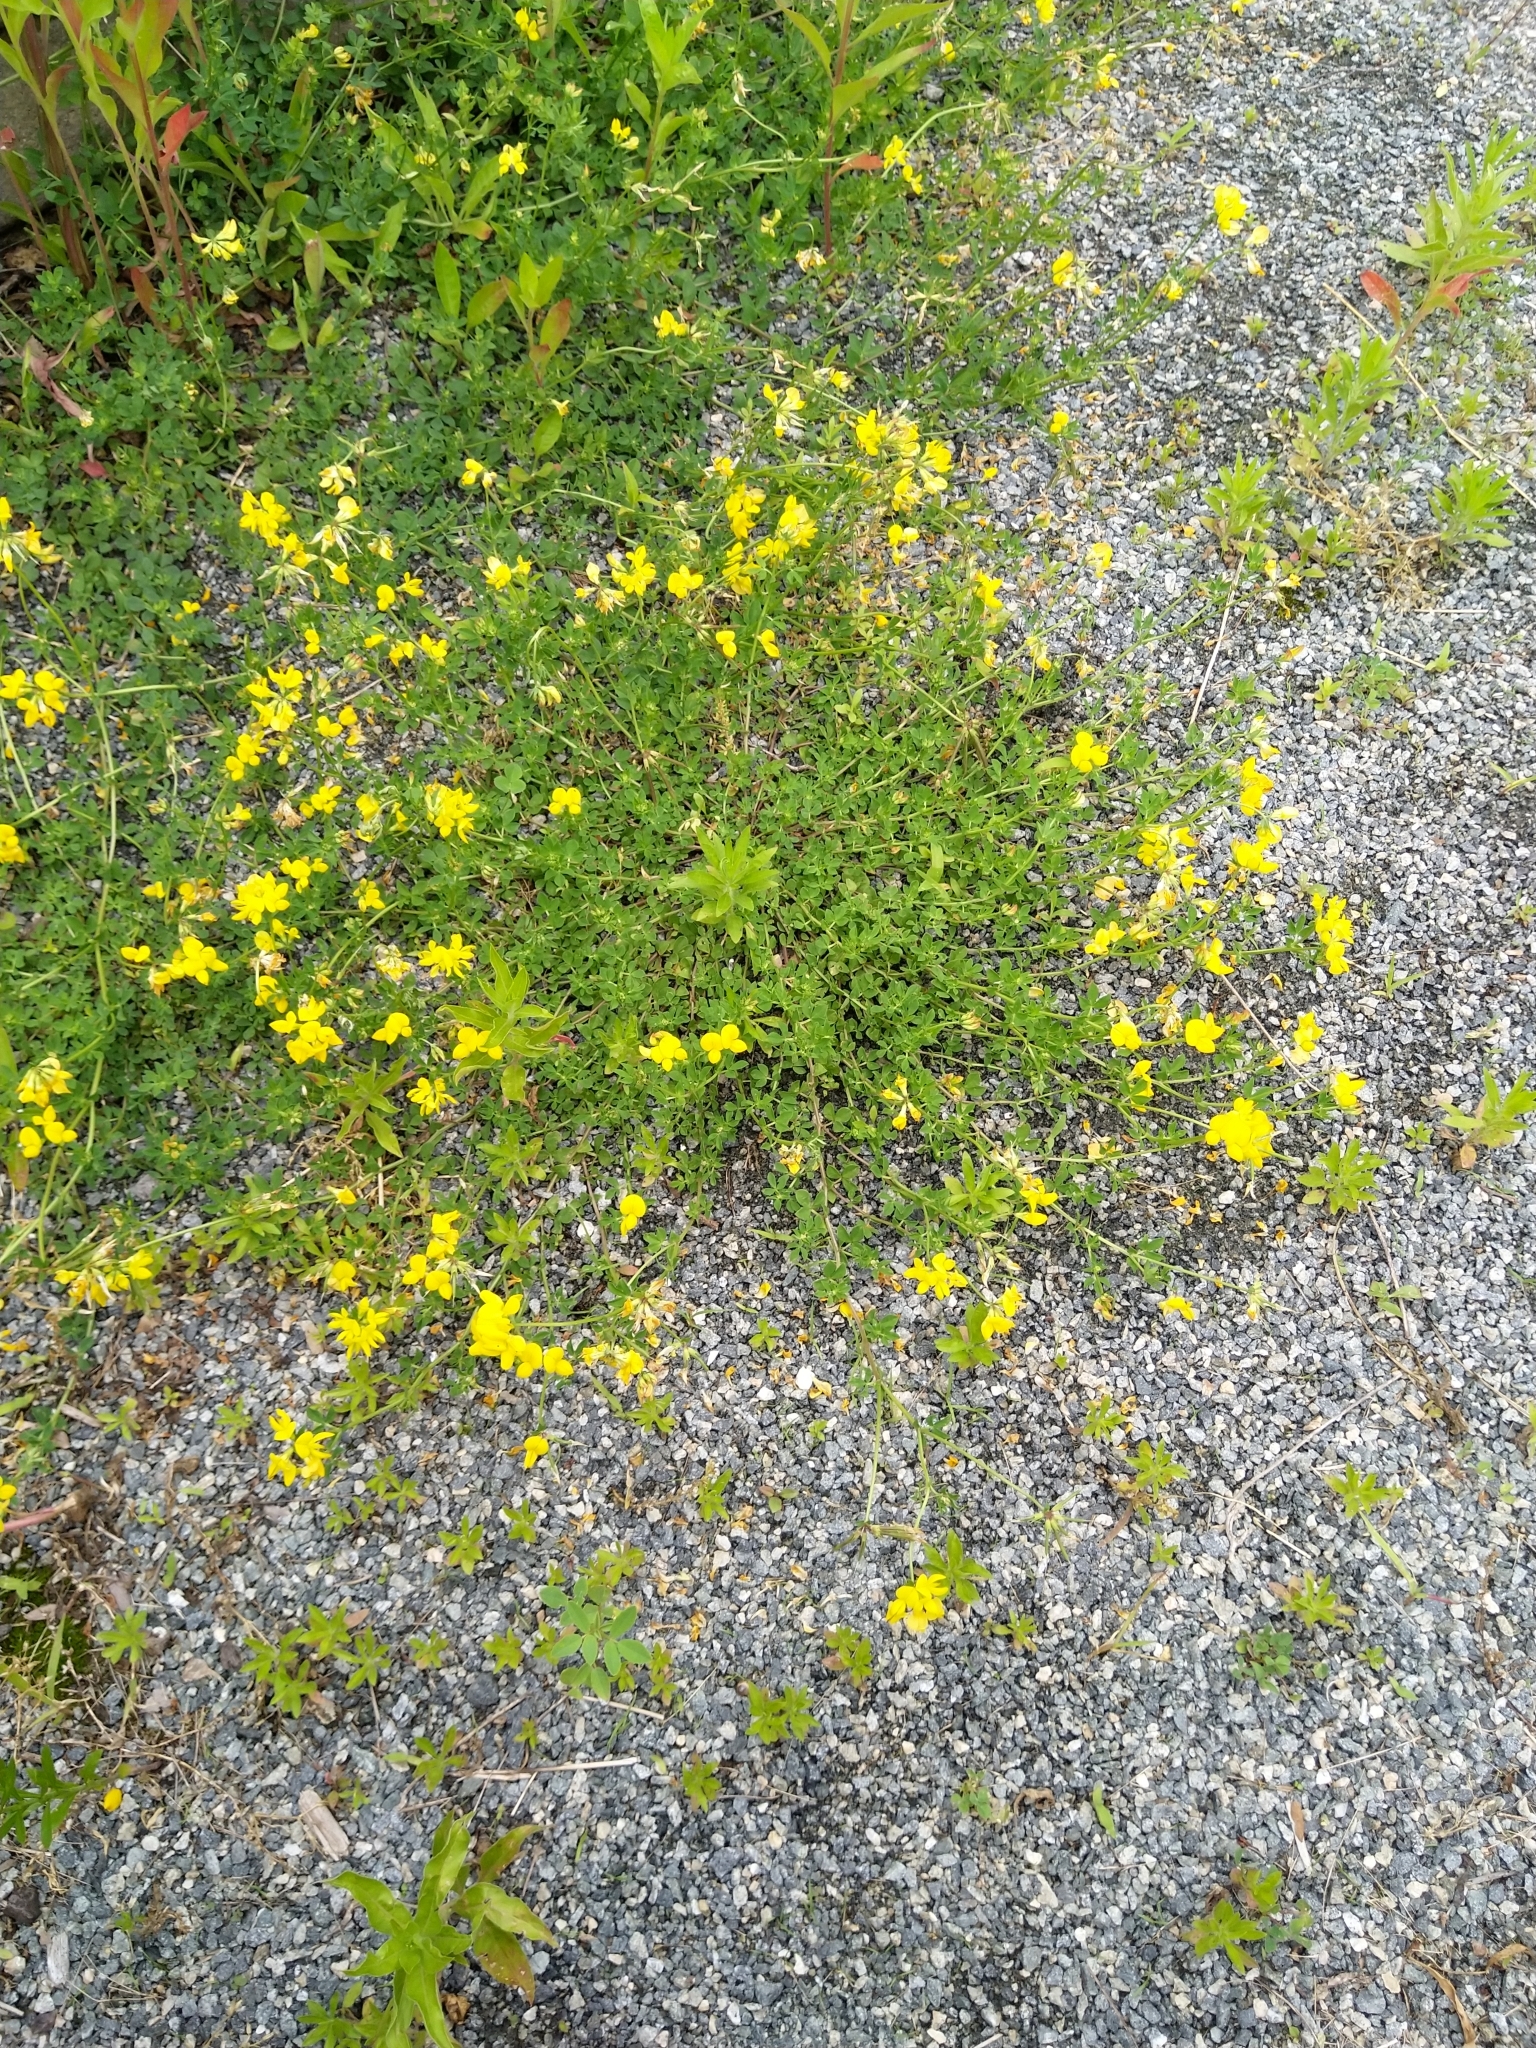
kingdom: Plantae
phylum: Tracheophyta
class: Magnoliopsida
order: Fabales
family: Fabaceae
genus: Lotus
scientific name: Lotus corniculatus
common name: Common bird's-foot-trefoil
